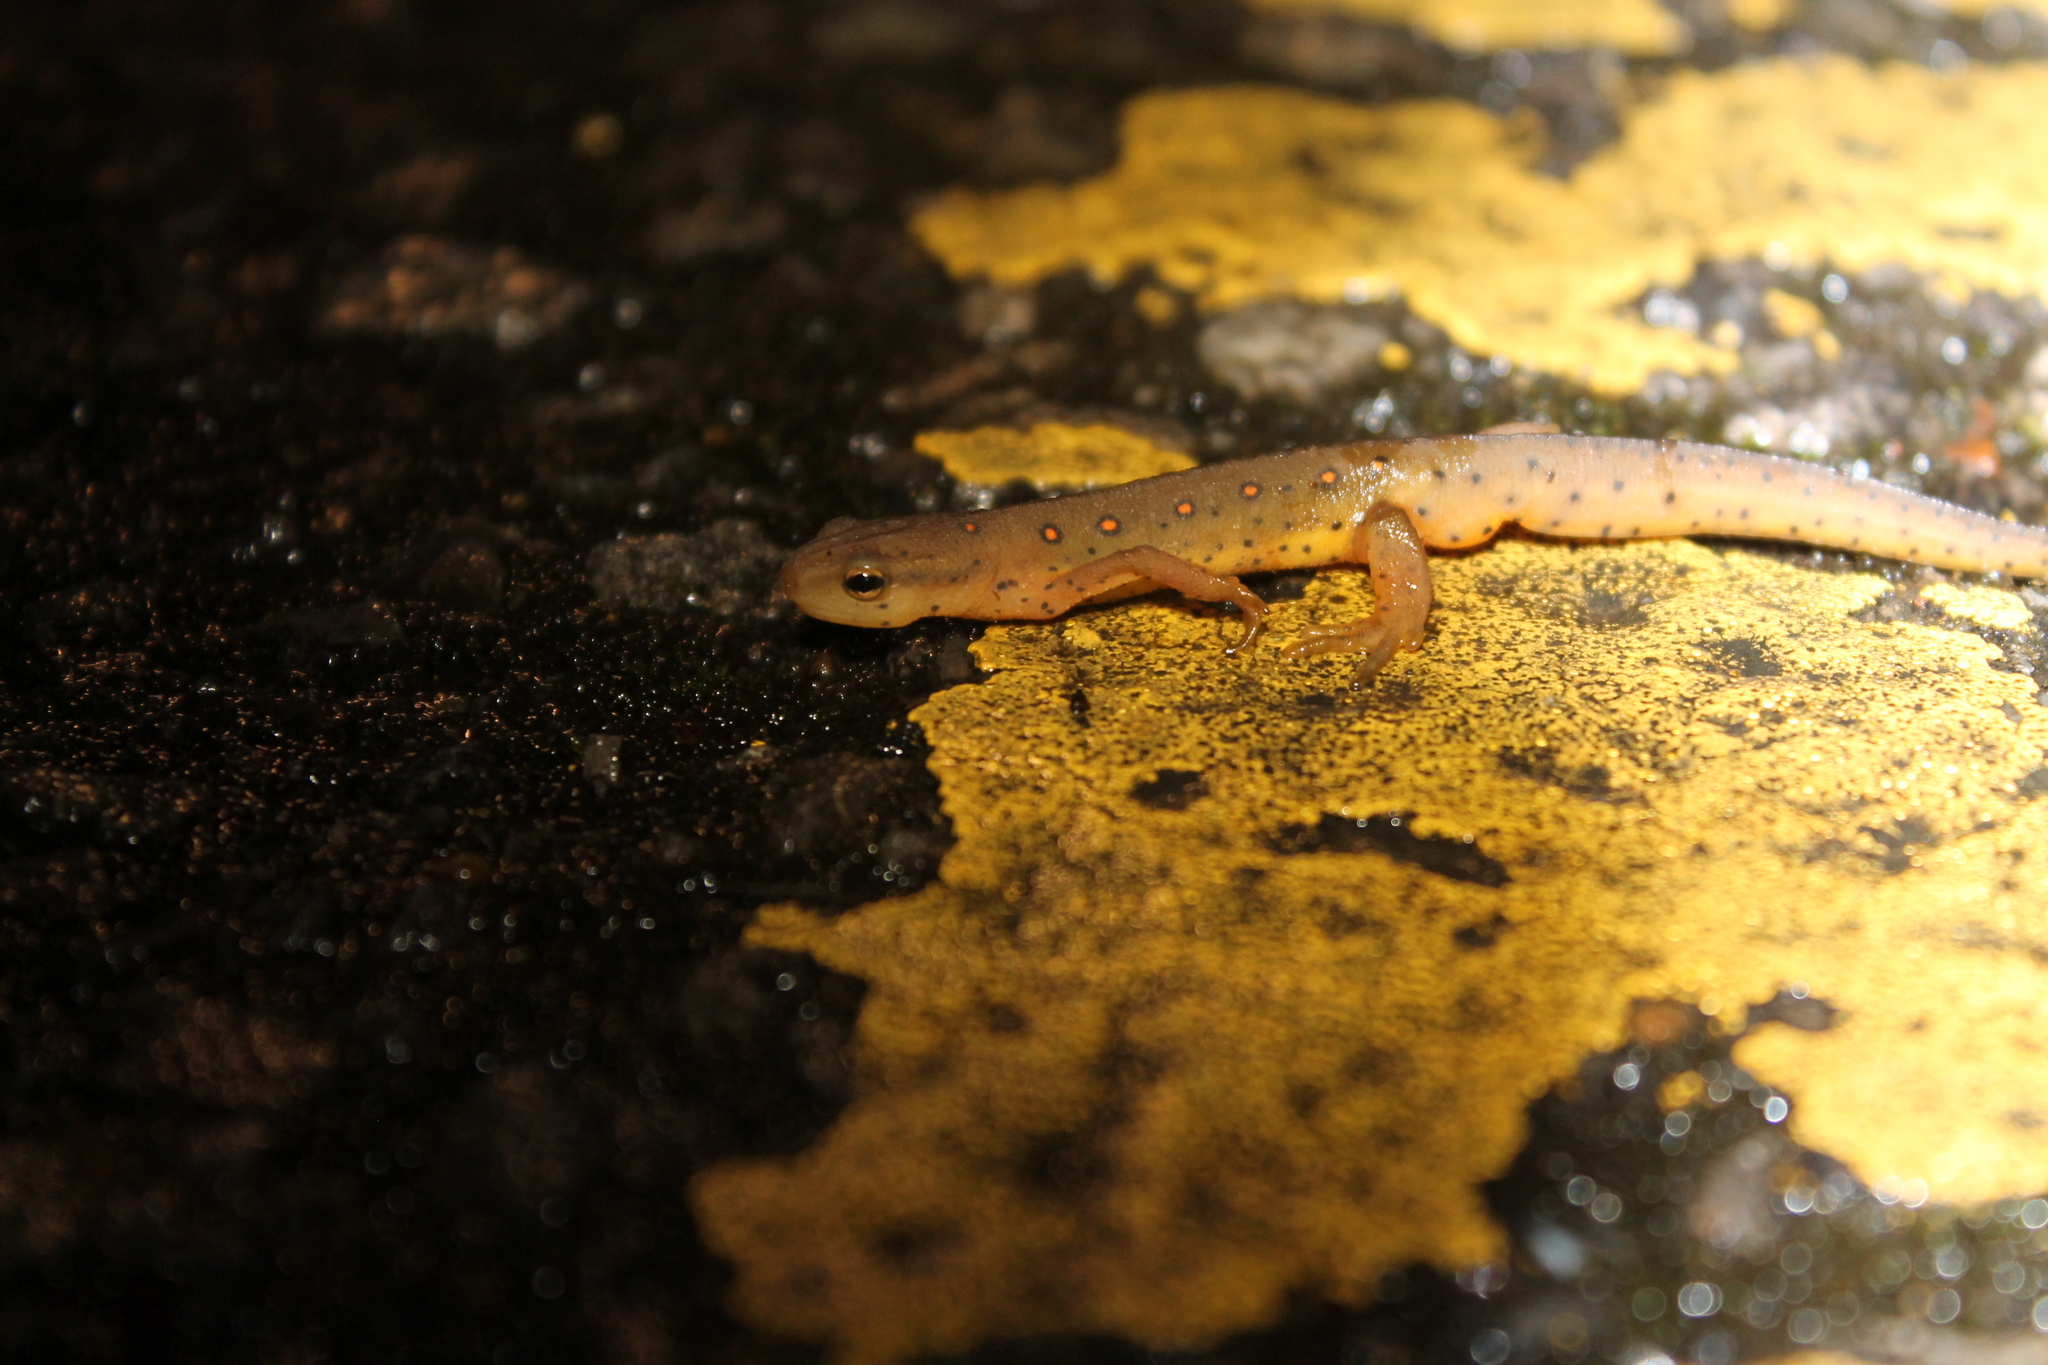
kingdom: Animalia
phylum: Chordata
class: Amphibia
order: Caudata
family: Salamandridae
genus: Notophthalmus
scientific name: Notophthalmus viridescens
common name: Eastern newt
